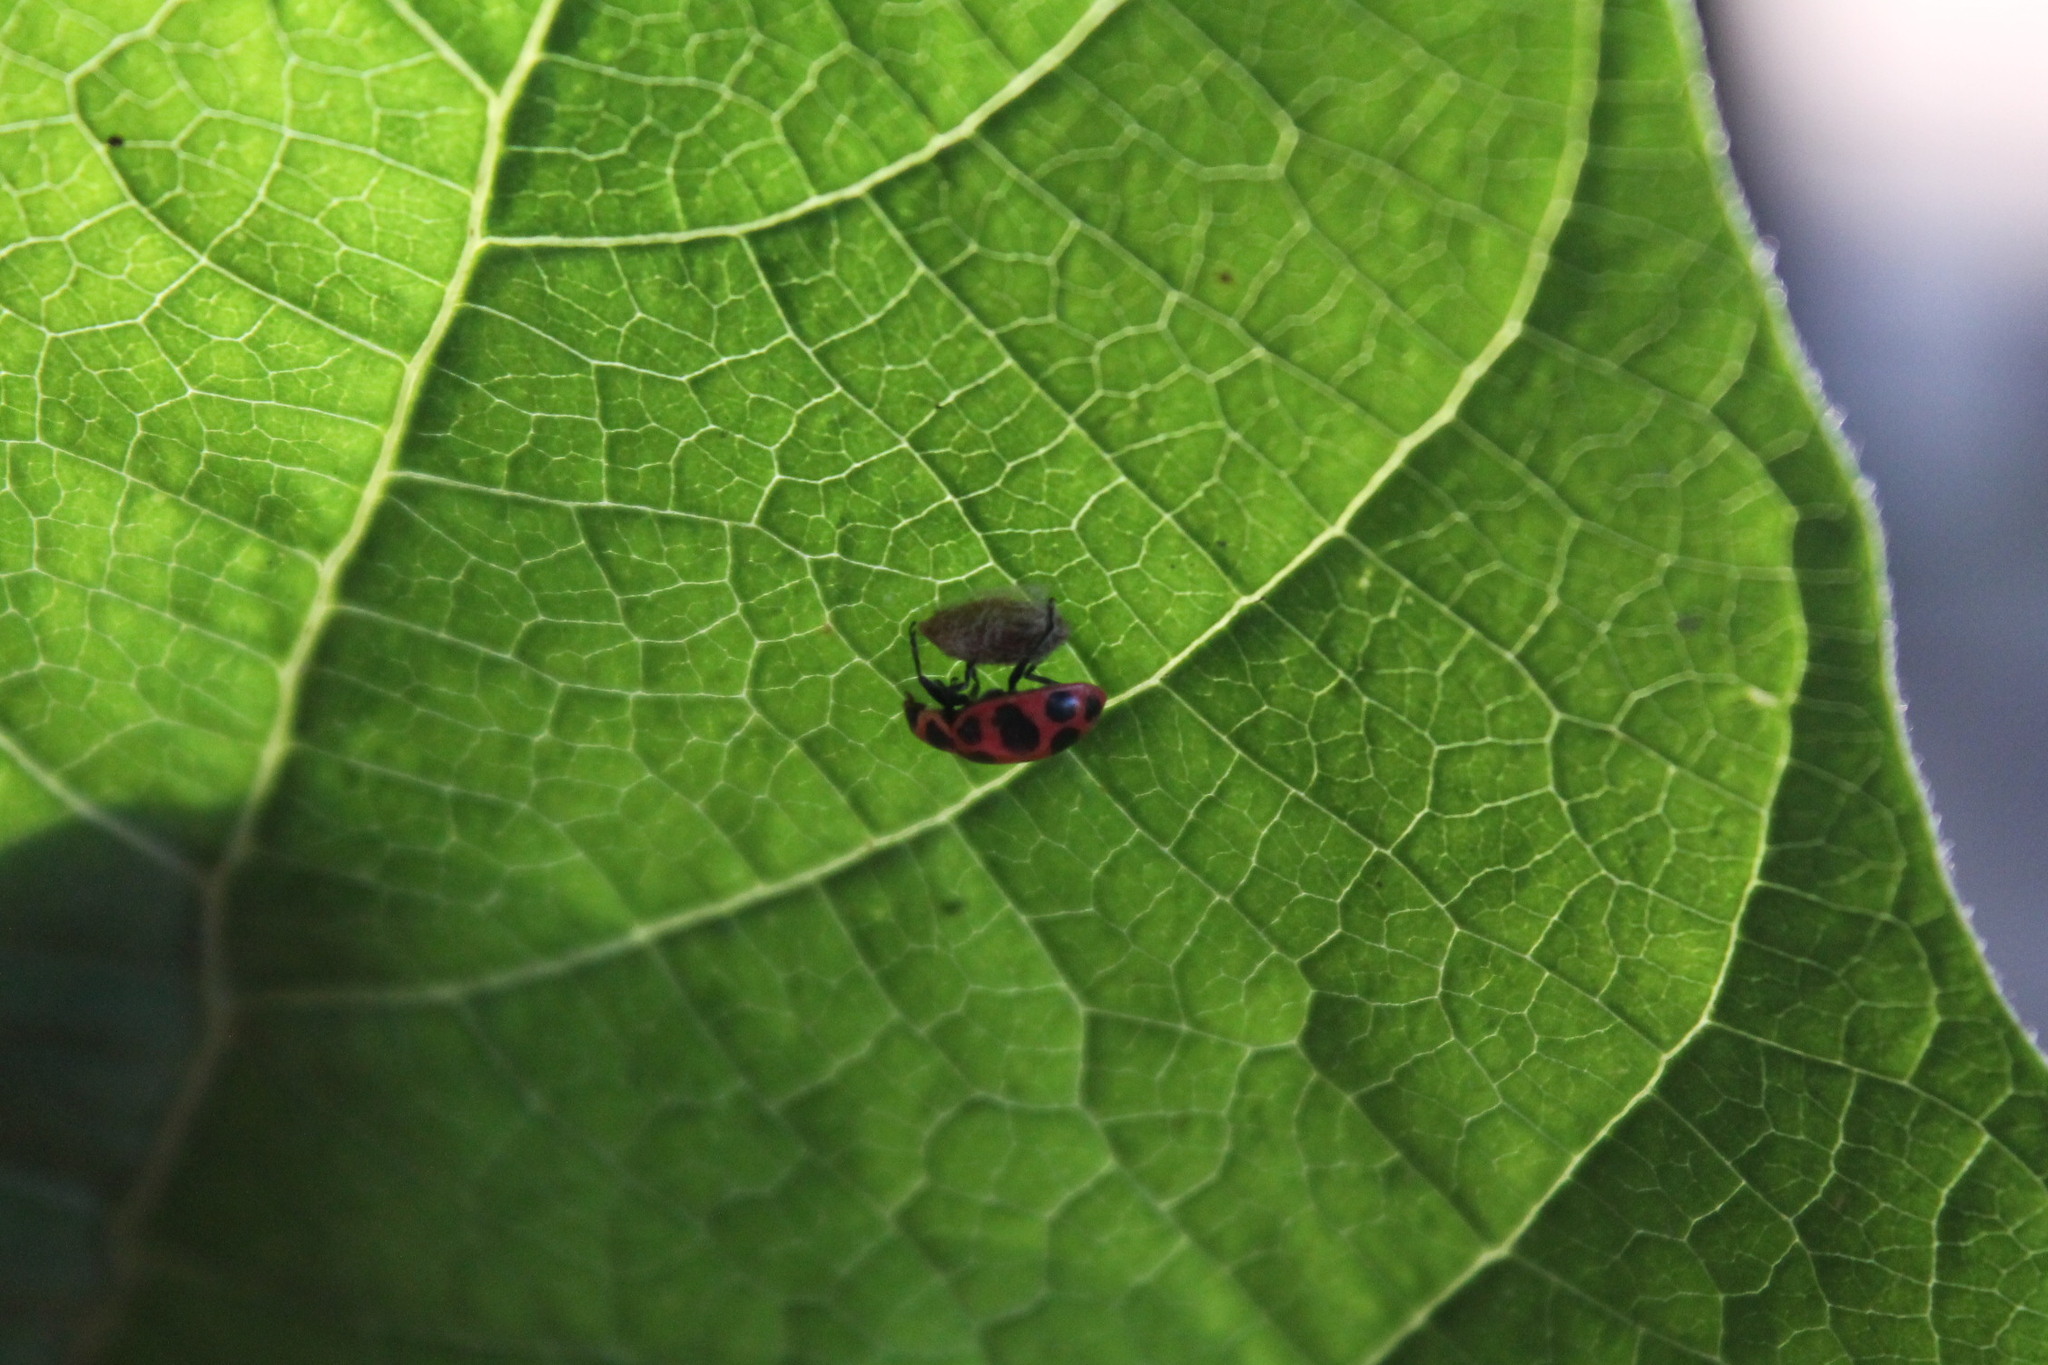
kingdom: Animalia
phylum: Arthropoda
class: Insecta
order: Coleoptera
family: Coccinellidae
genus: Coleomegilla
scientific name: Coleomegilla maculata
